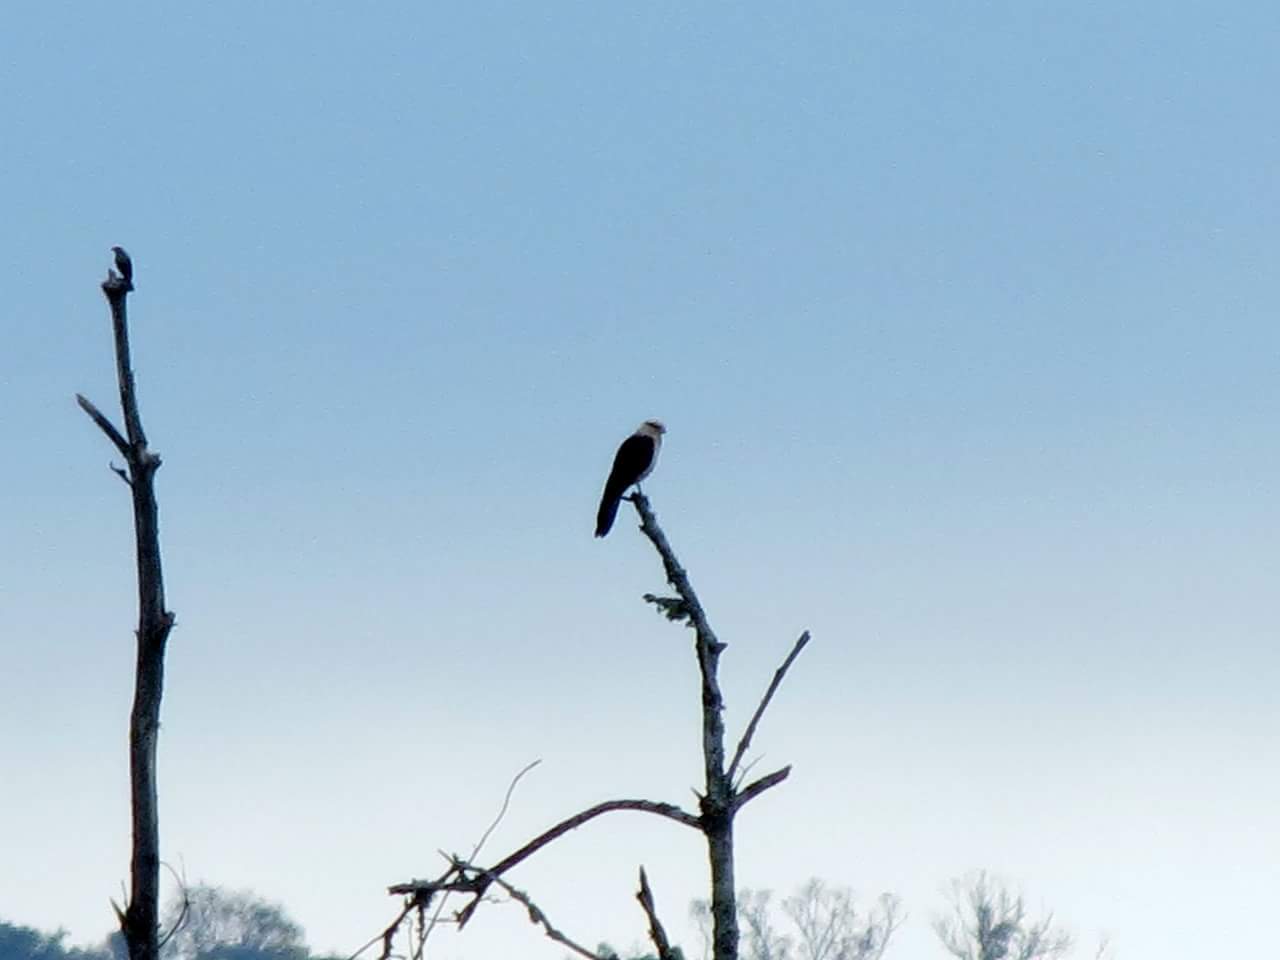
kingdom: Animalia
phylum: Chordata
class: Aves
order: Falconiformes
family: Falconidae
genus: Daptrius
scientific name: Daptrius
